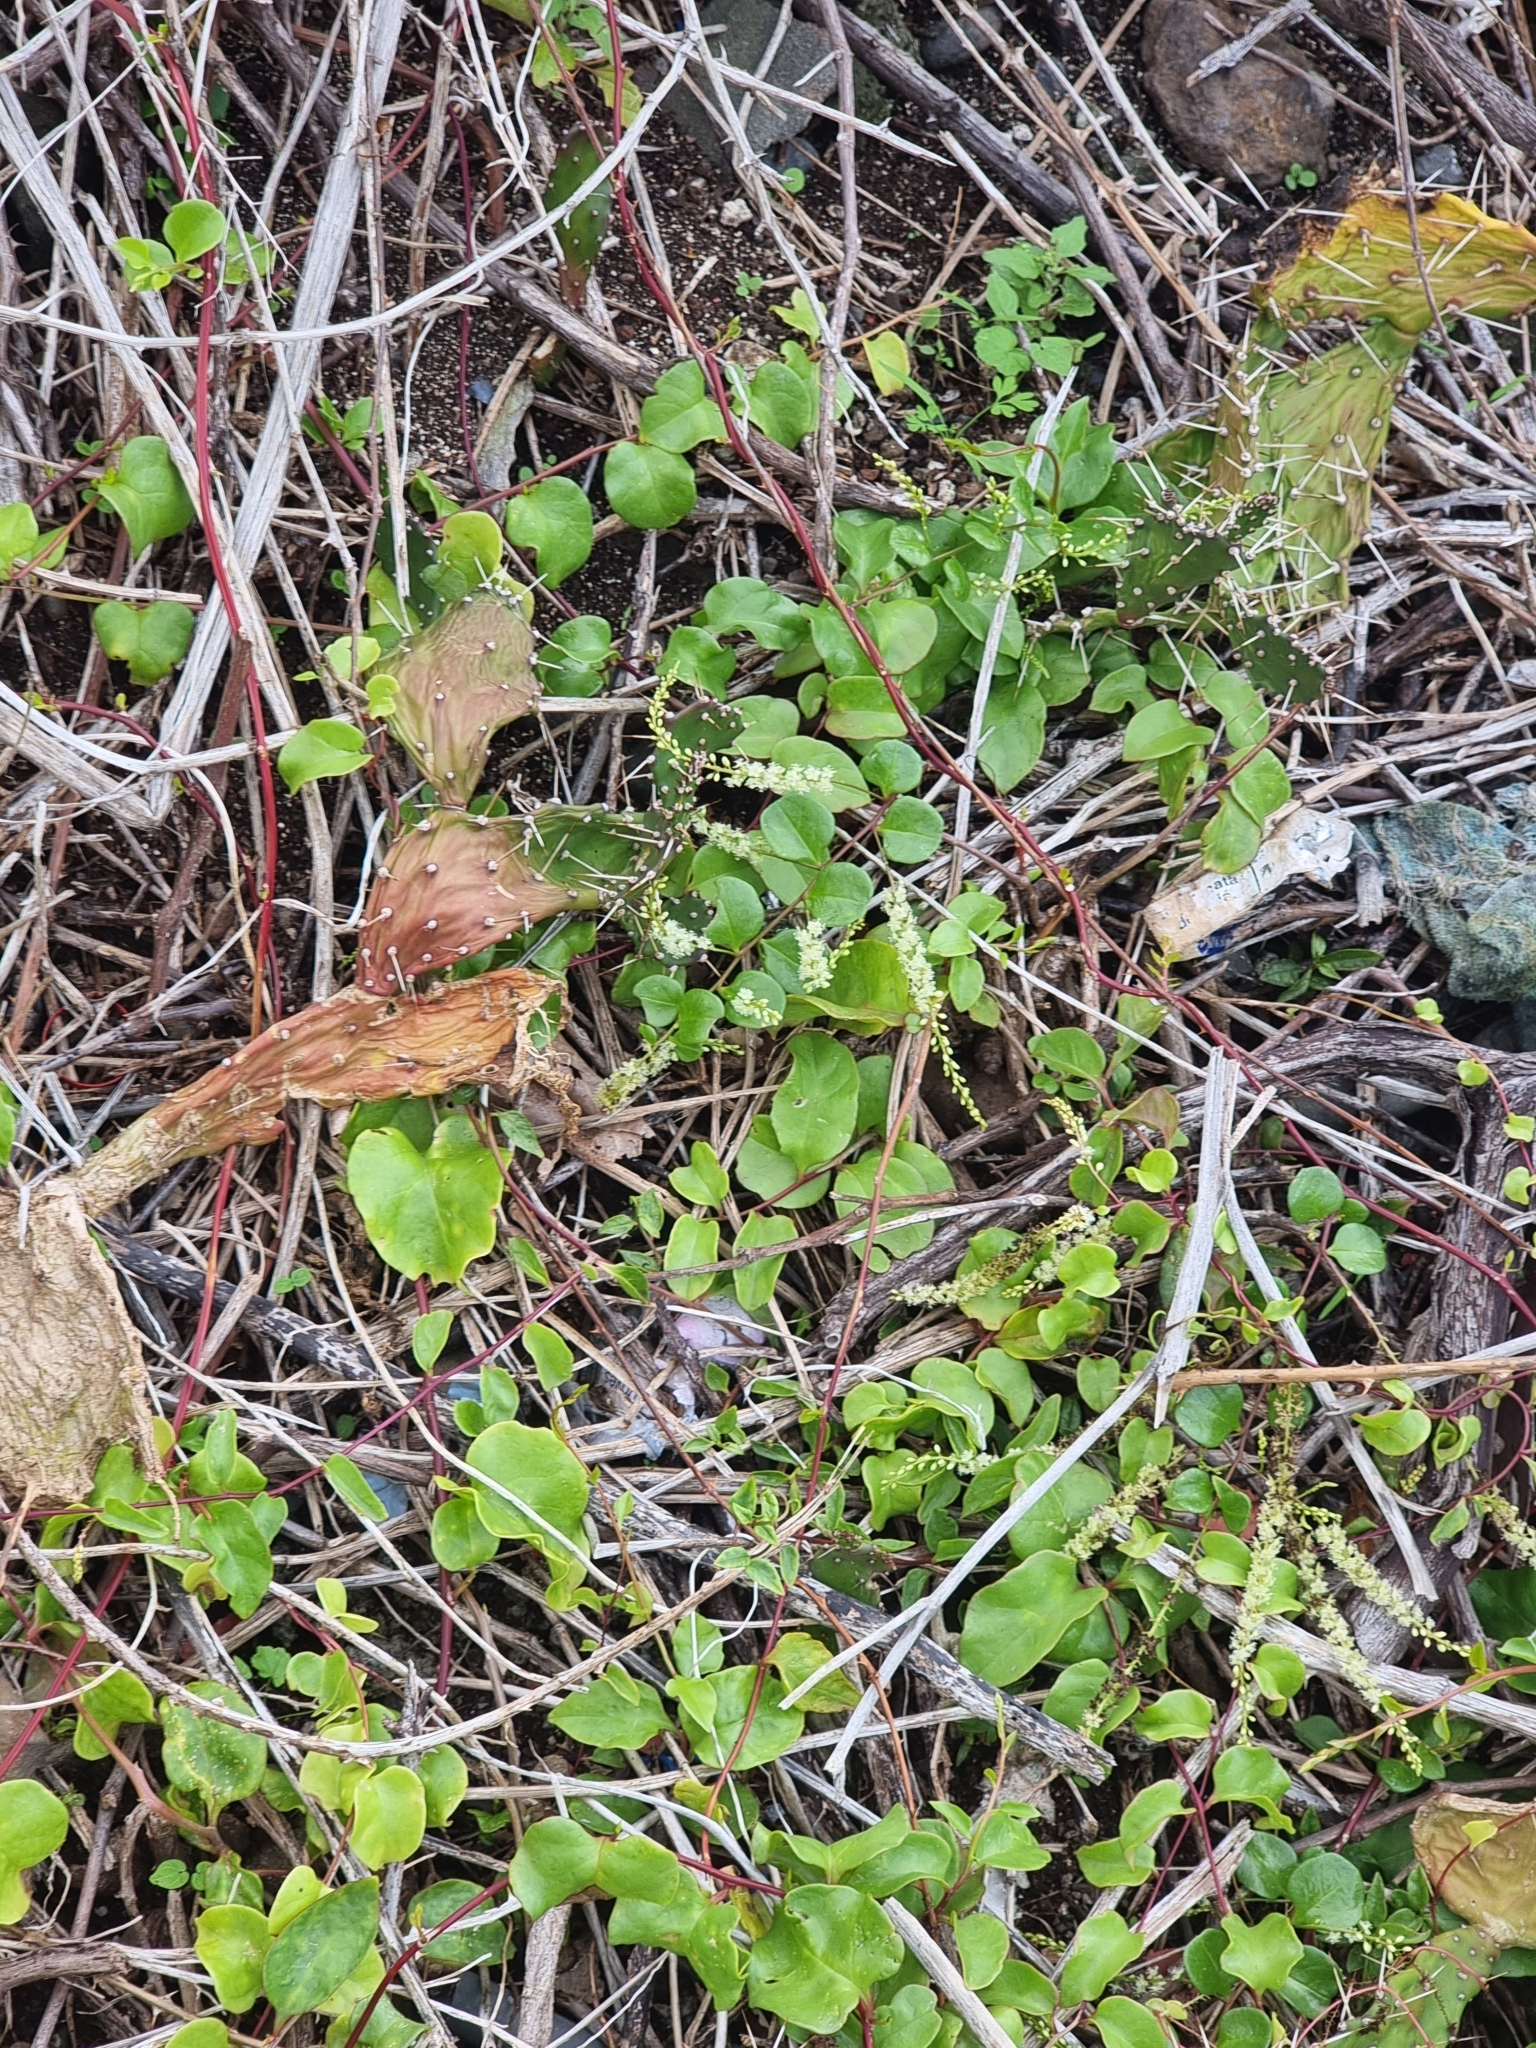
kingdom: Plantae
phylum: Tracheophyta
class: Magnoliopsida
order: Caryophyllales
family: Basellaceae
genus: Anredera
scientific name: Anredera cordifolia
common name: Heartleaf madeiravine
